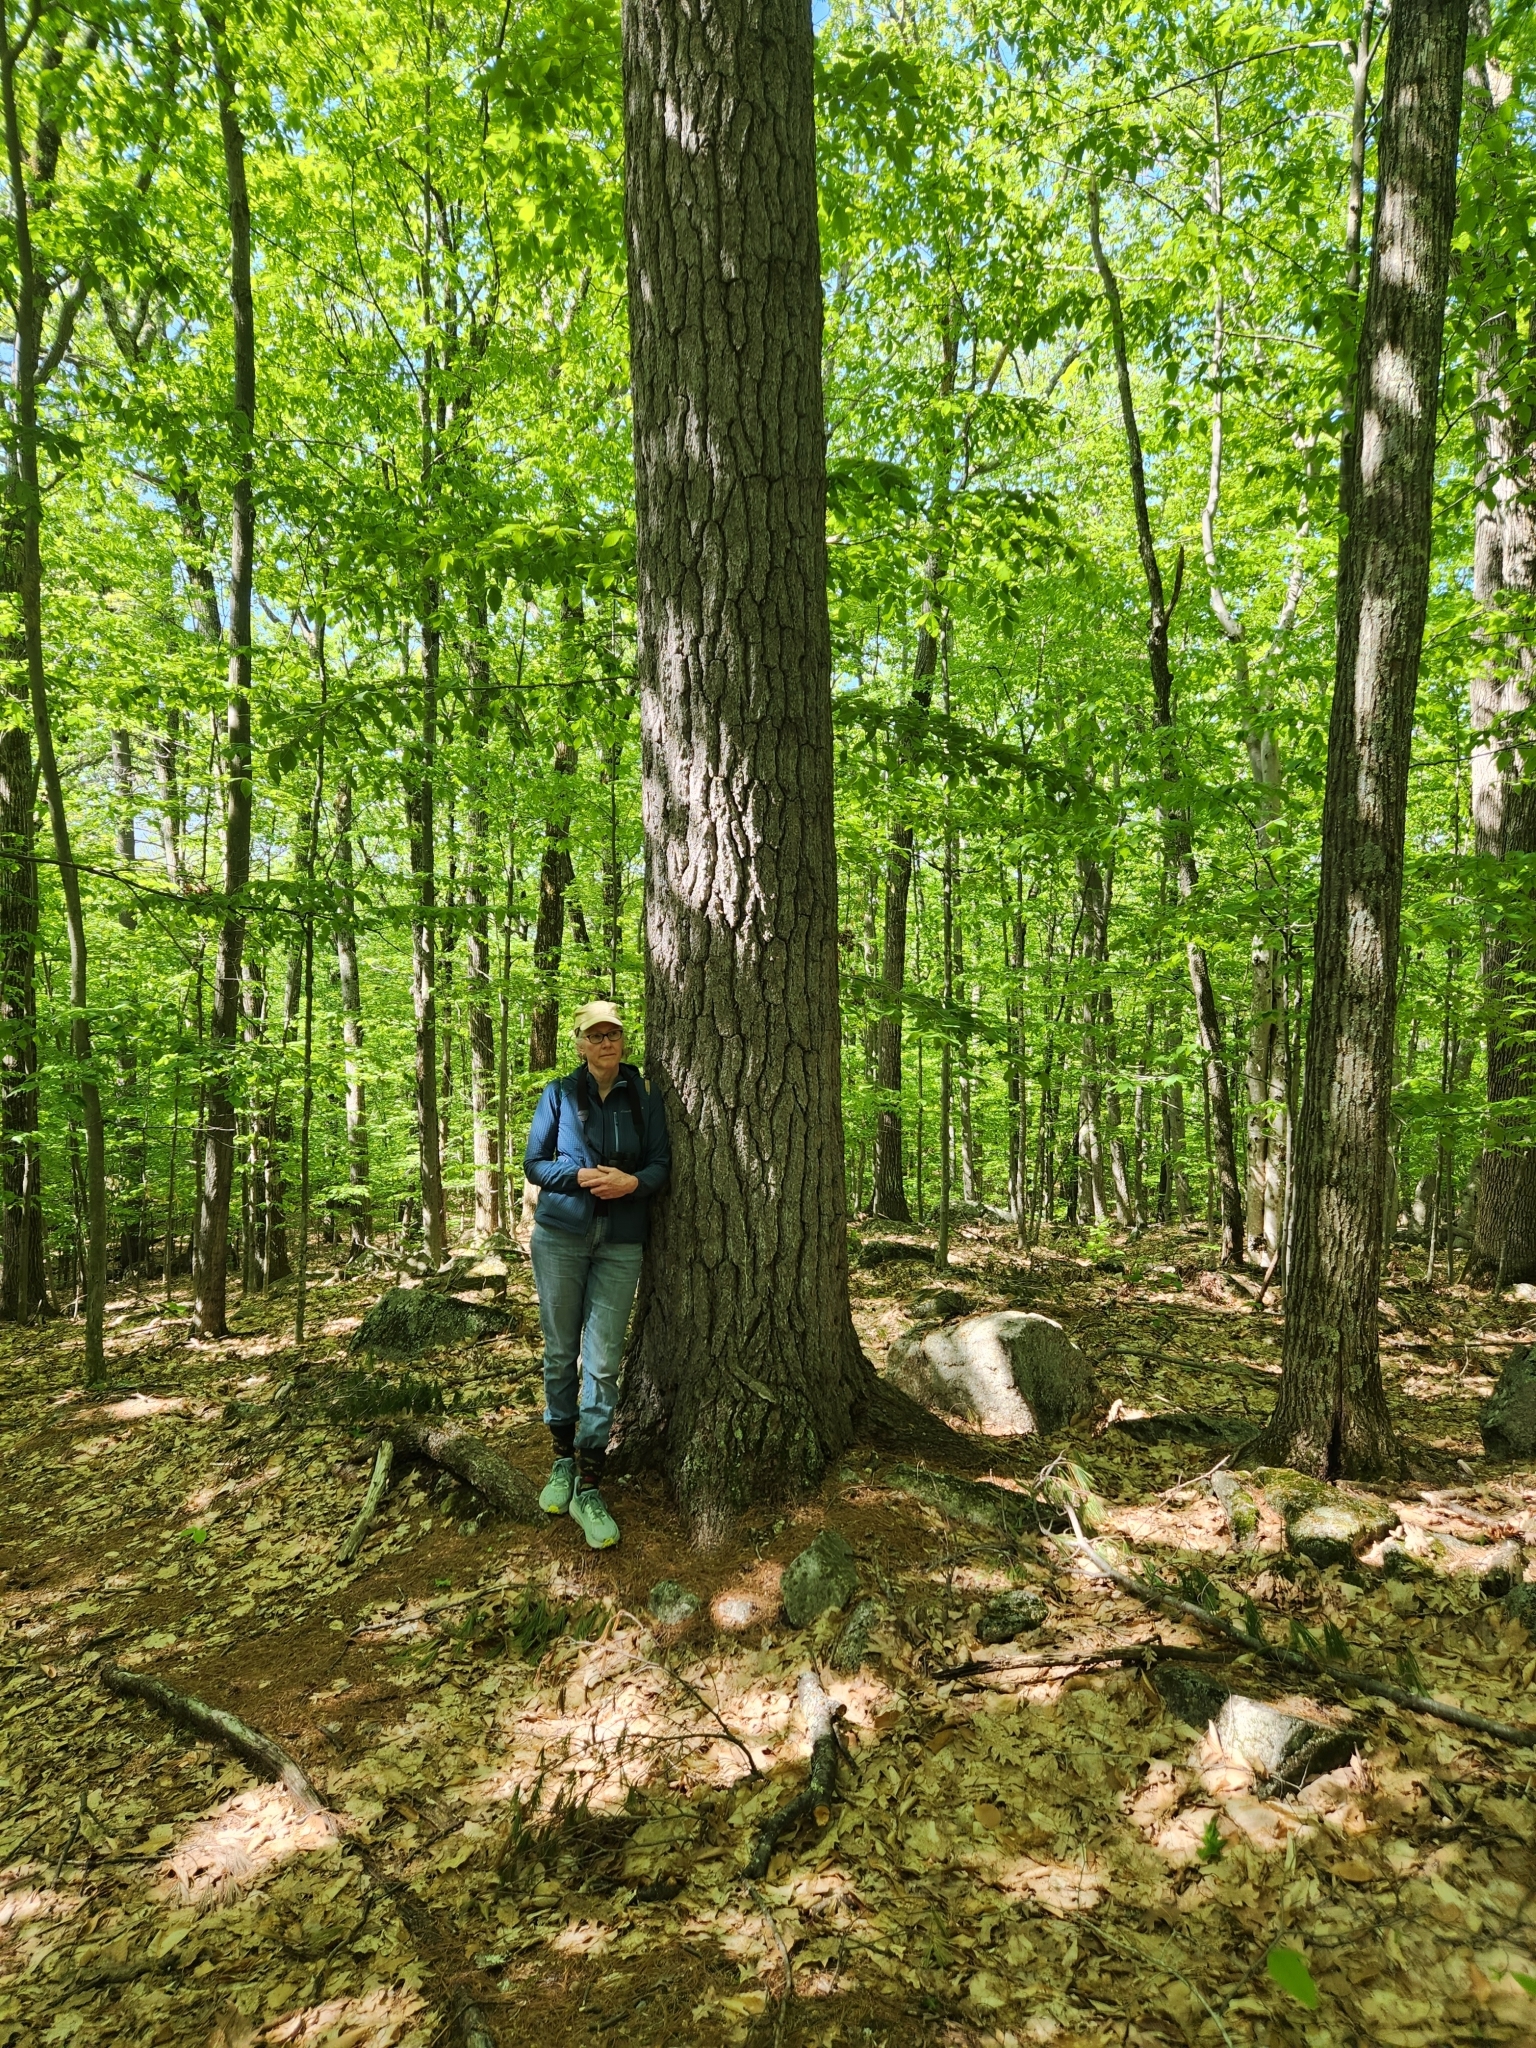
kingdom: Plantae
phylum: Tracheophyta
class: Pinopsida
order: Pinales
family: Pinaceae
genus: Pinus
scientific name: Pinus strobus
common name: Weymouth pine
